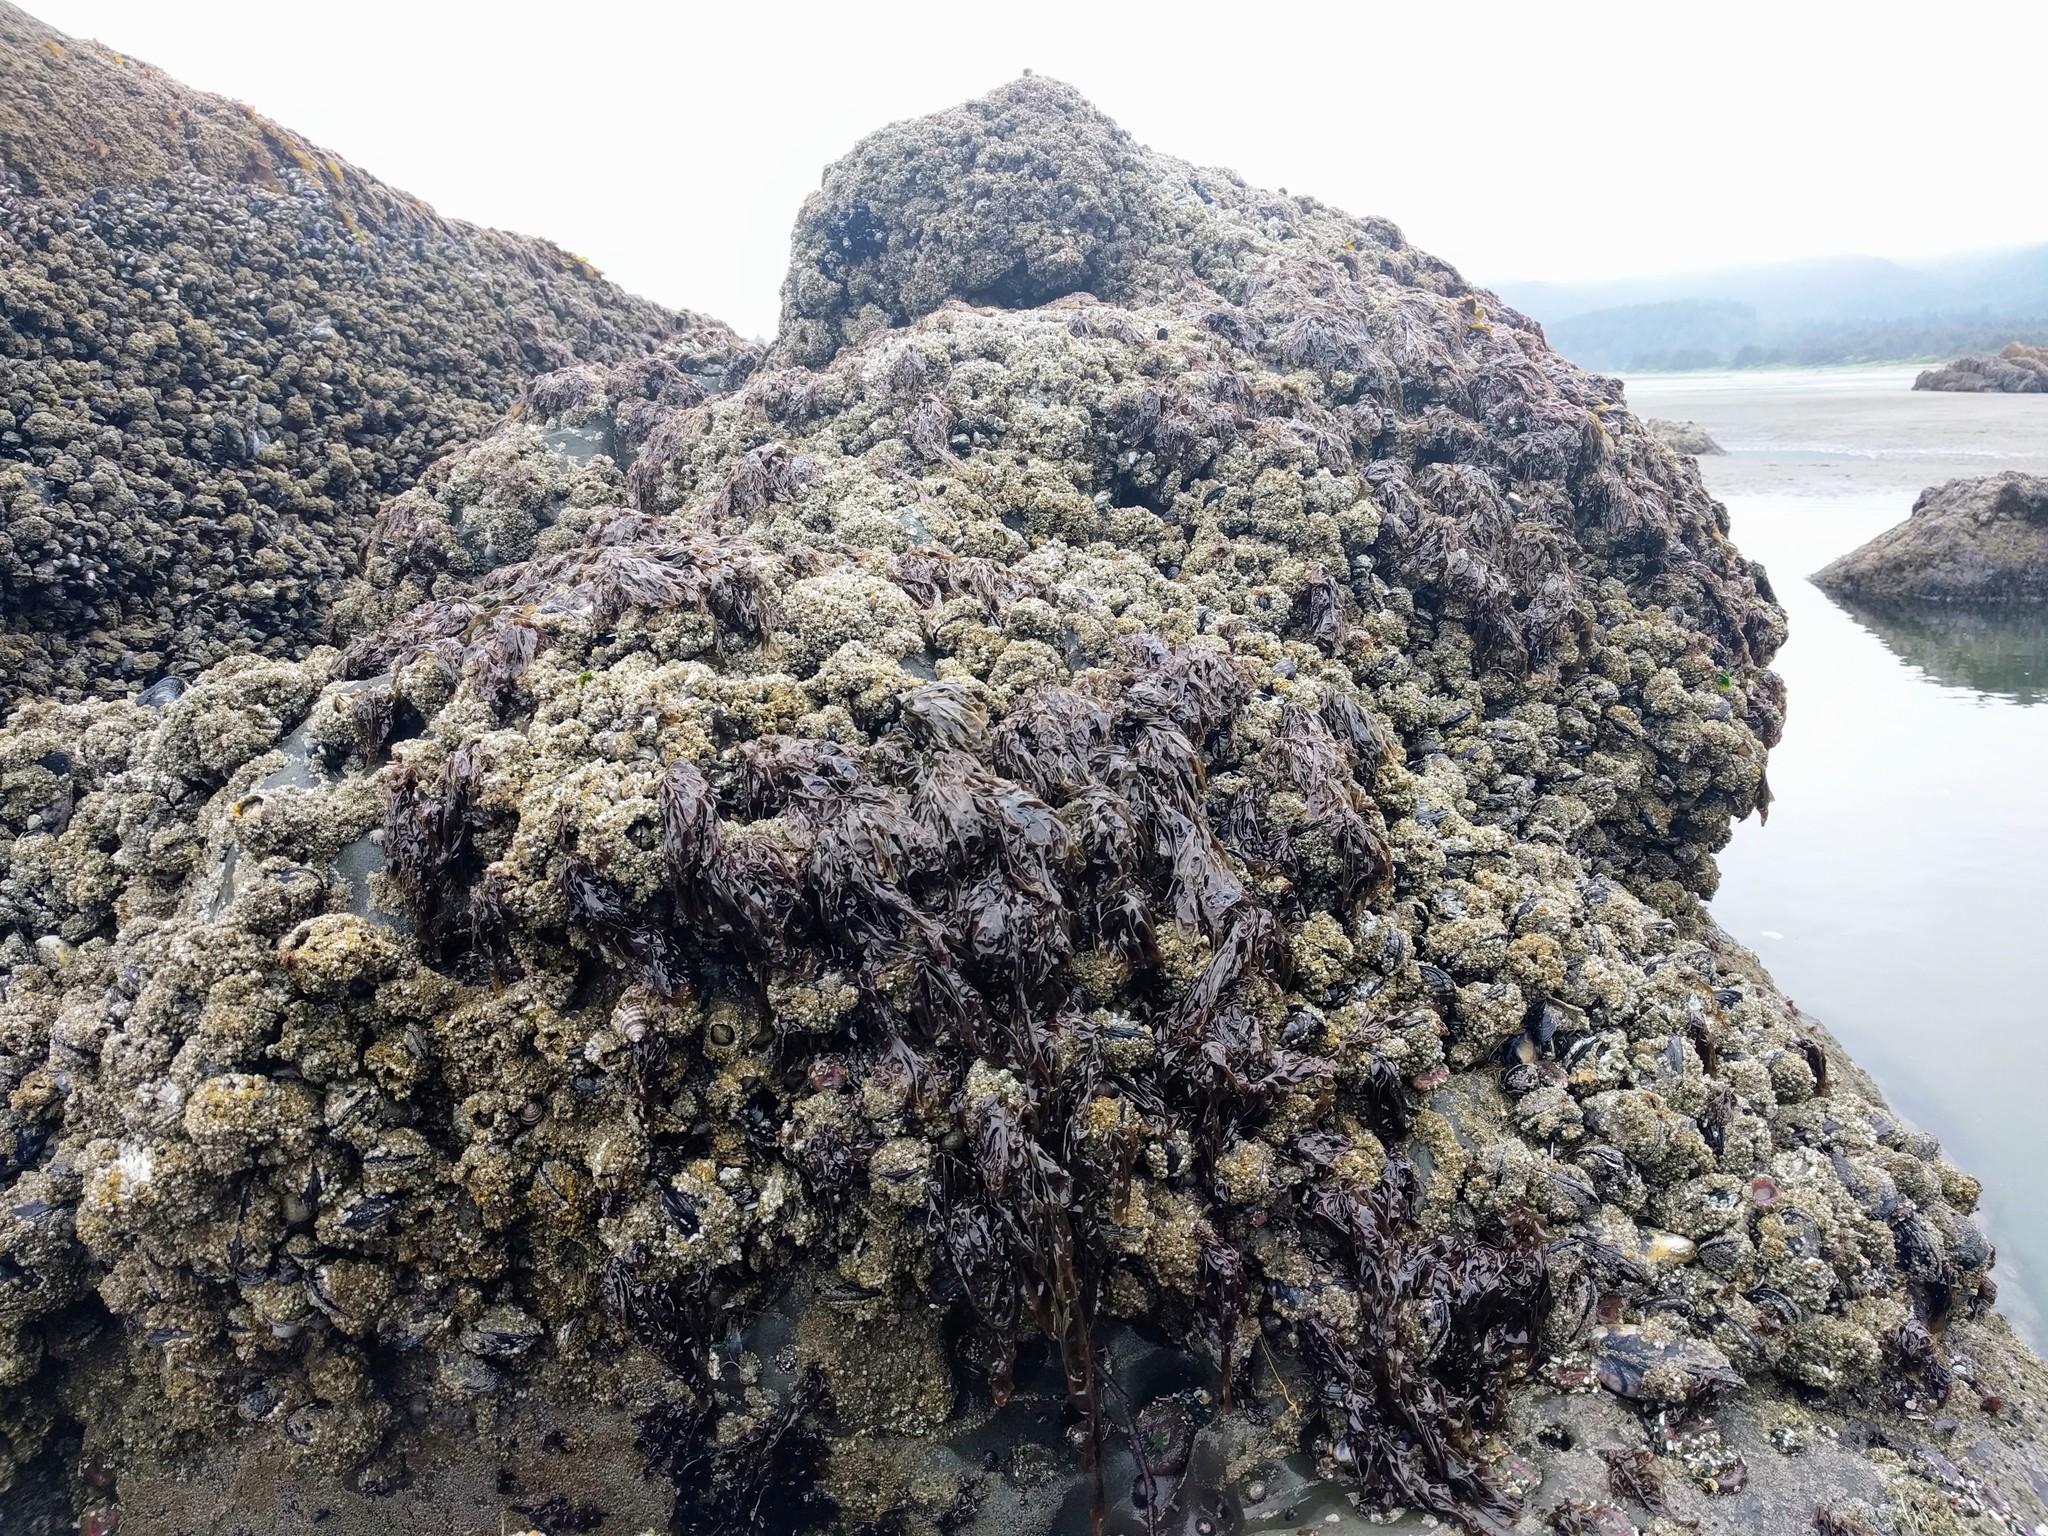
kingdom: Animalia
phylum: Arthropoda
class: Maxillopoda
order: Sessilia
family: Balanidae
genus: Balanus
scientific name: Balanus nubilus
